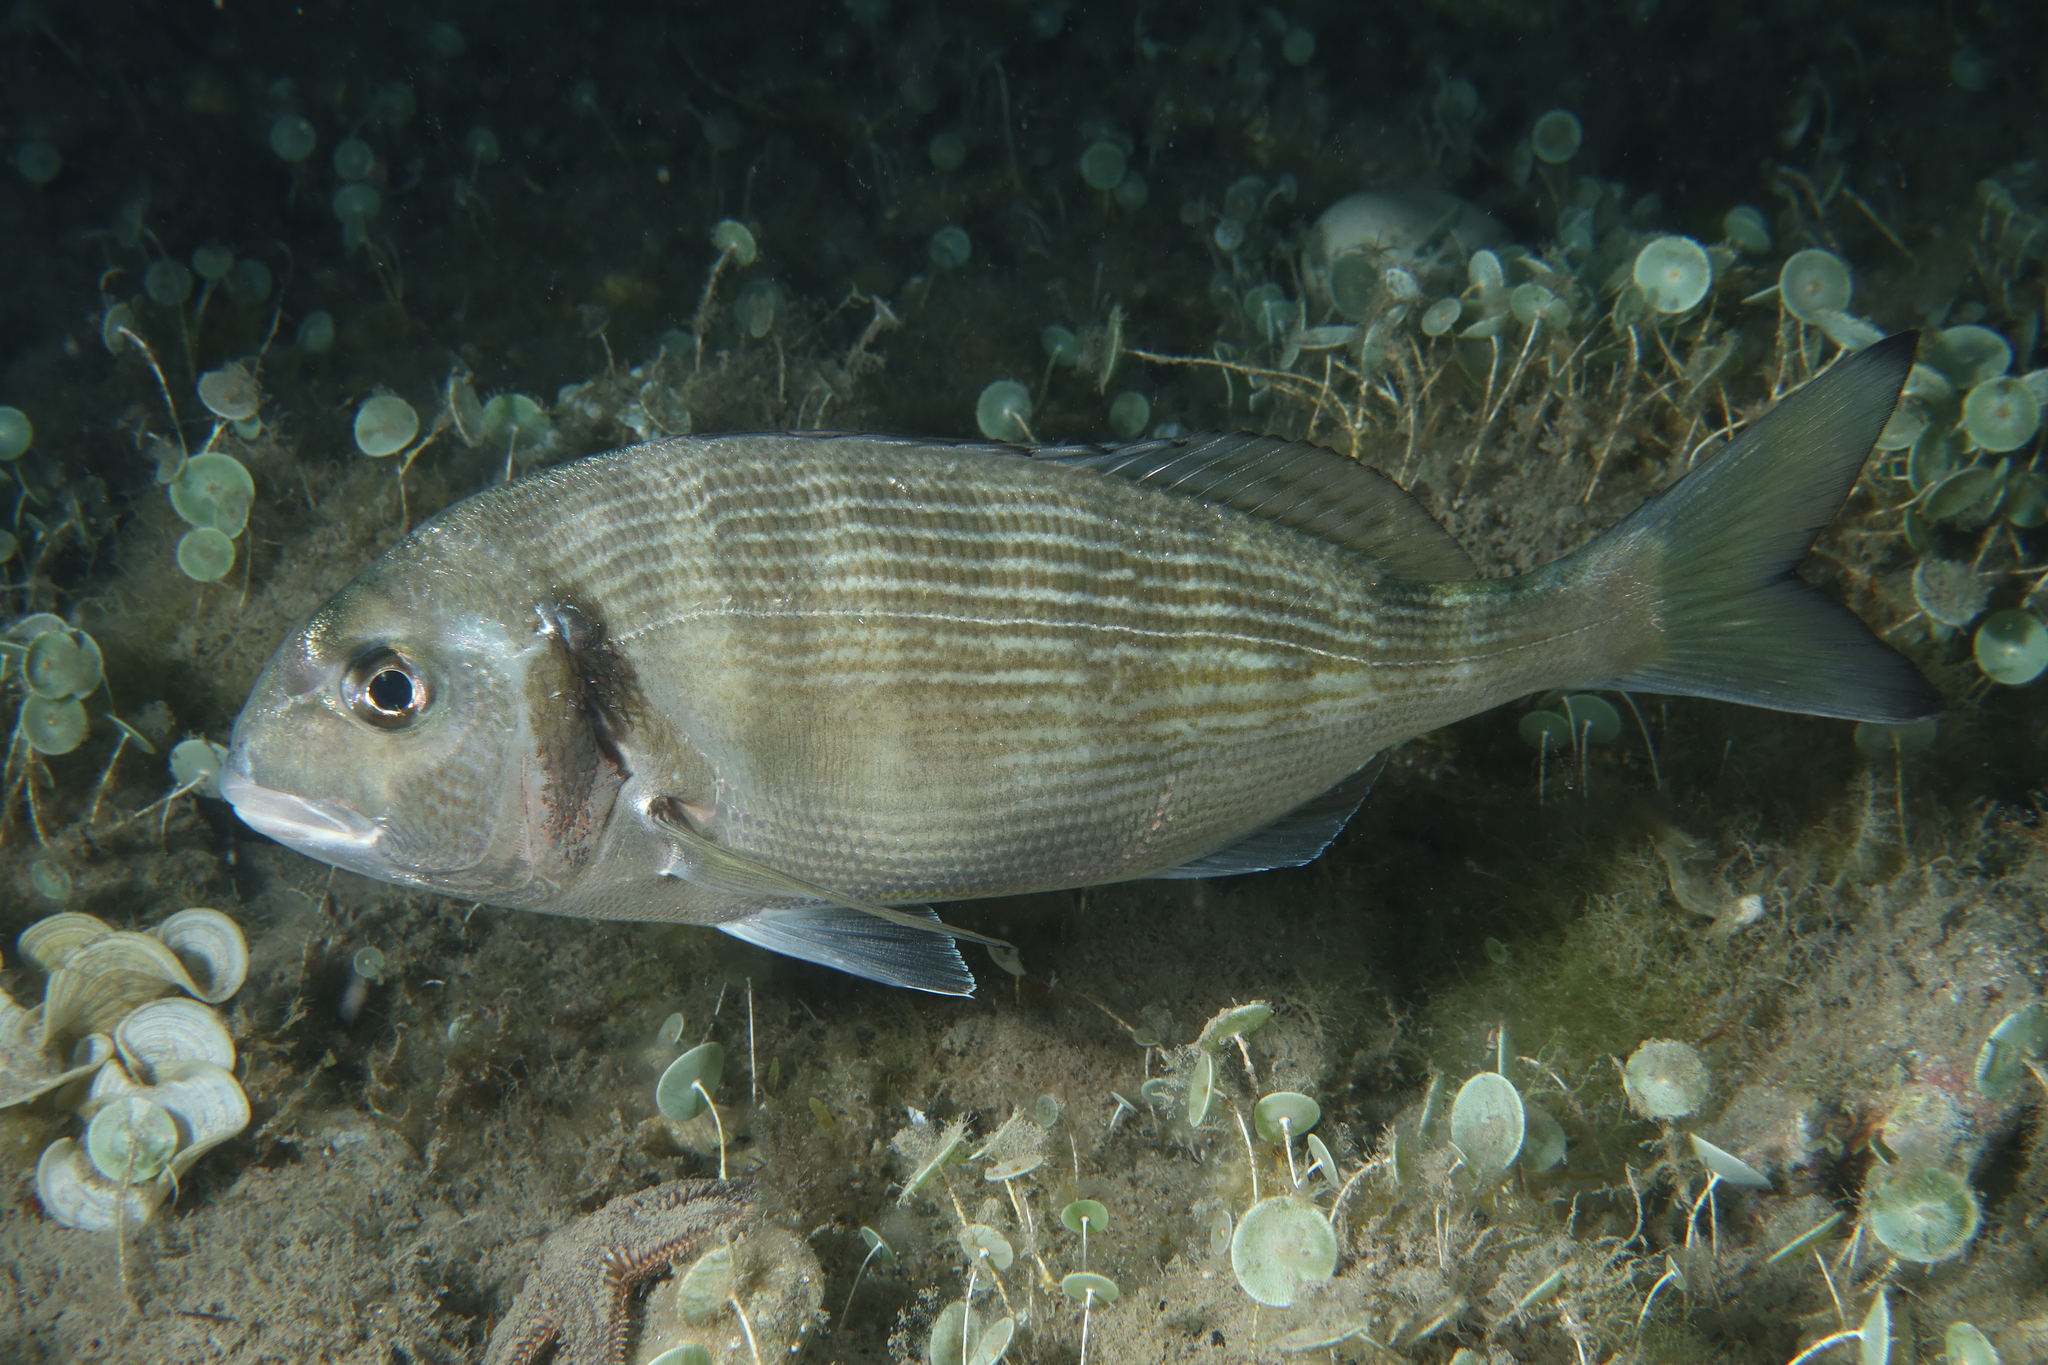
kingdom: Animalia
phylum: Chordata
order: Perciformes
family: Sparidae
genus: Sparus
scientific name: Sparus aurata
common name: Gilthead
